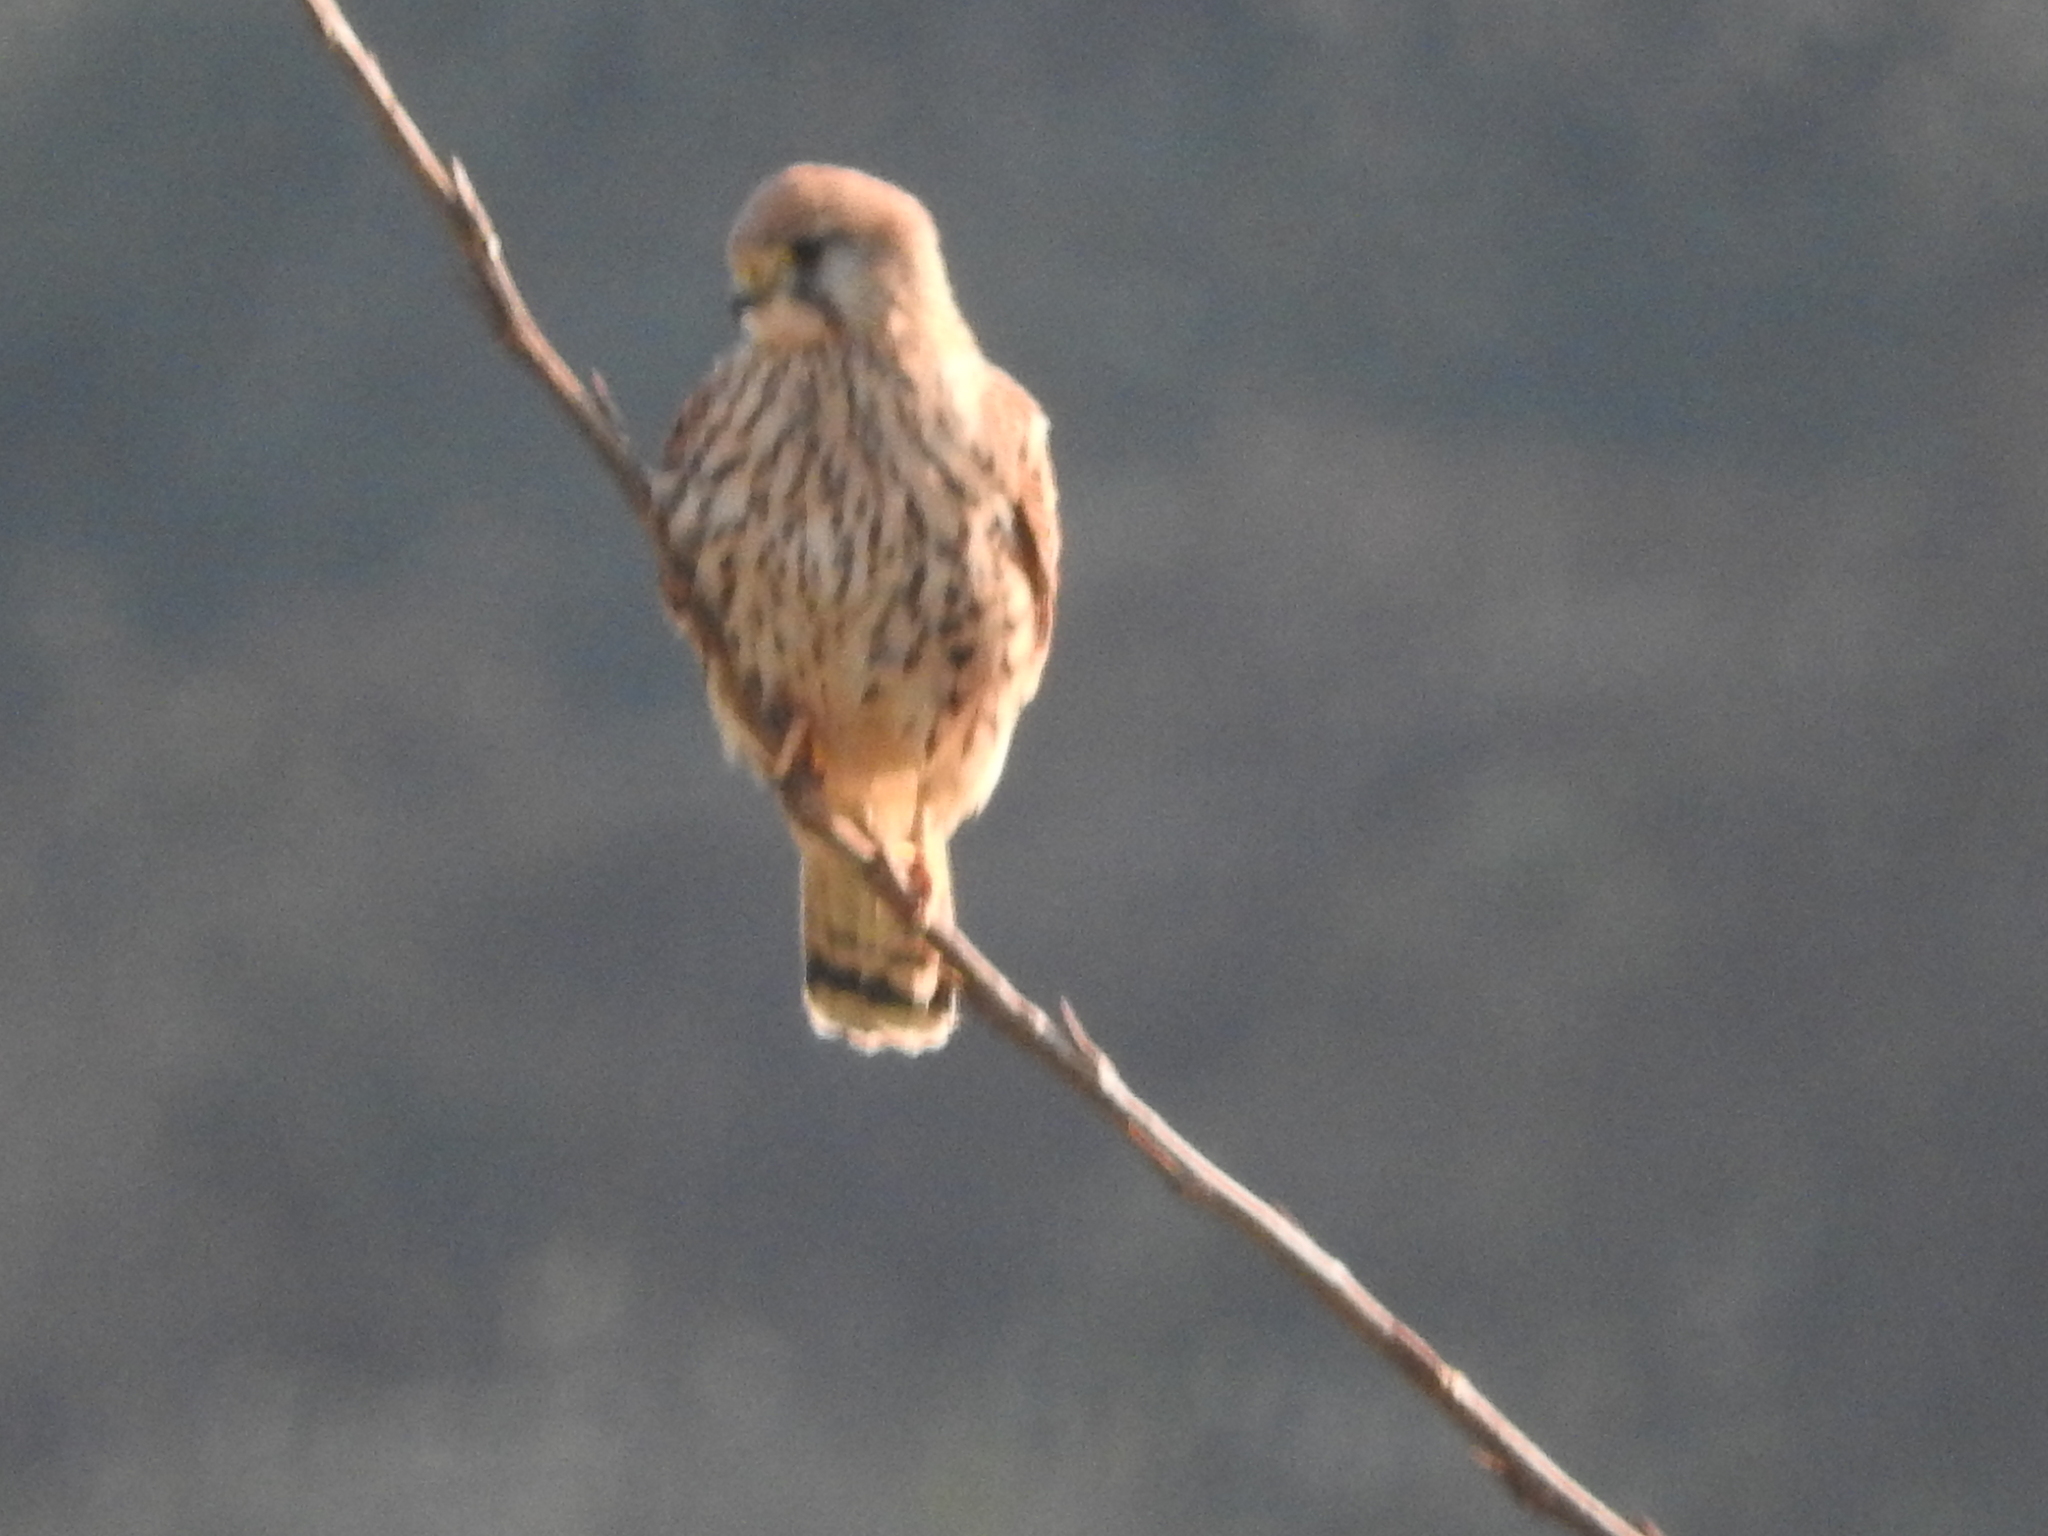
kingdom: Animalia
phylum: Chordata
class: Aves
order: Falconiformes
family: Falconidae
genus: Falco
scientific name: Falco tinnunculus
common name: Common kestrel
